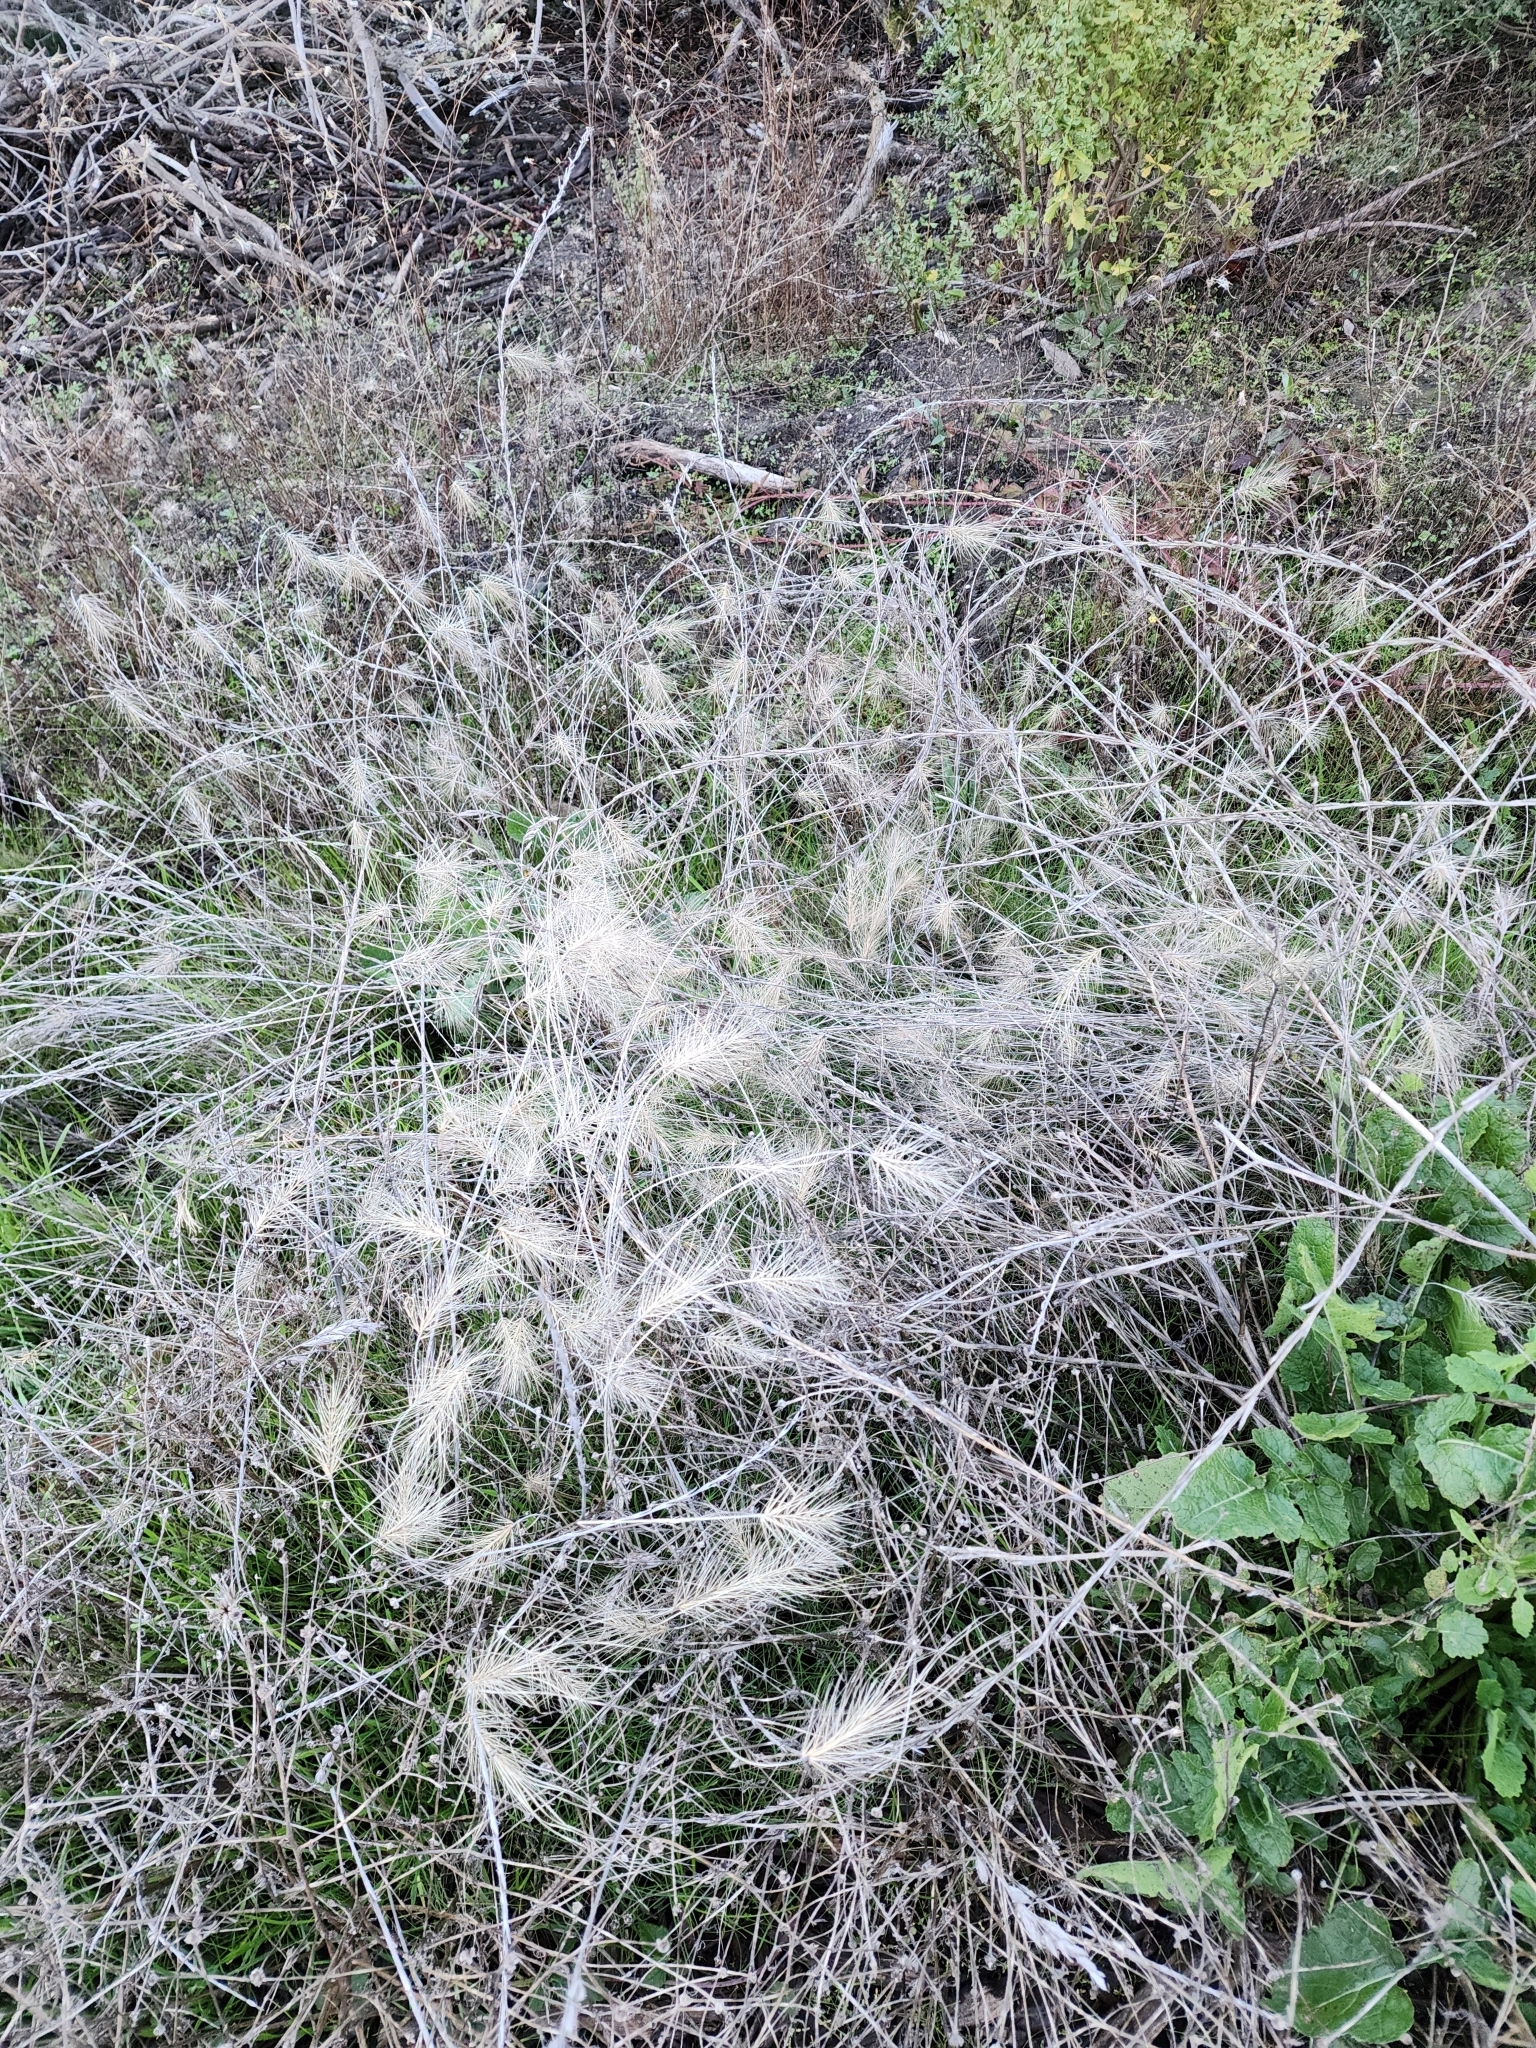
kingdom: Plantae
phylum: Tracheophyta
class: Liliopsida
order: Poales
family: Poaceae
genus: Taeniatherum
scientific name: Taeniatherum caput-medusae
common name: Medusahead
